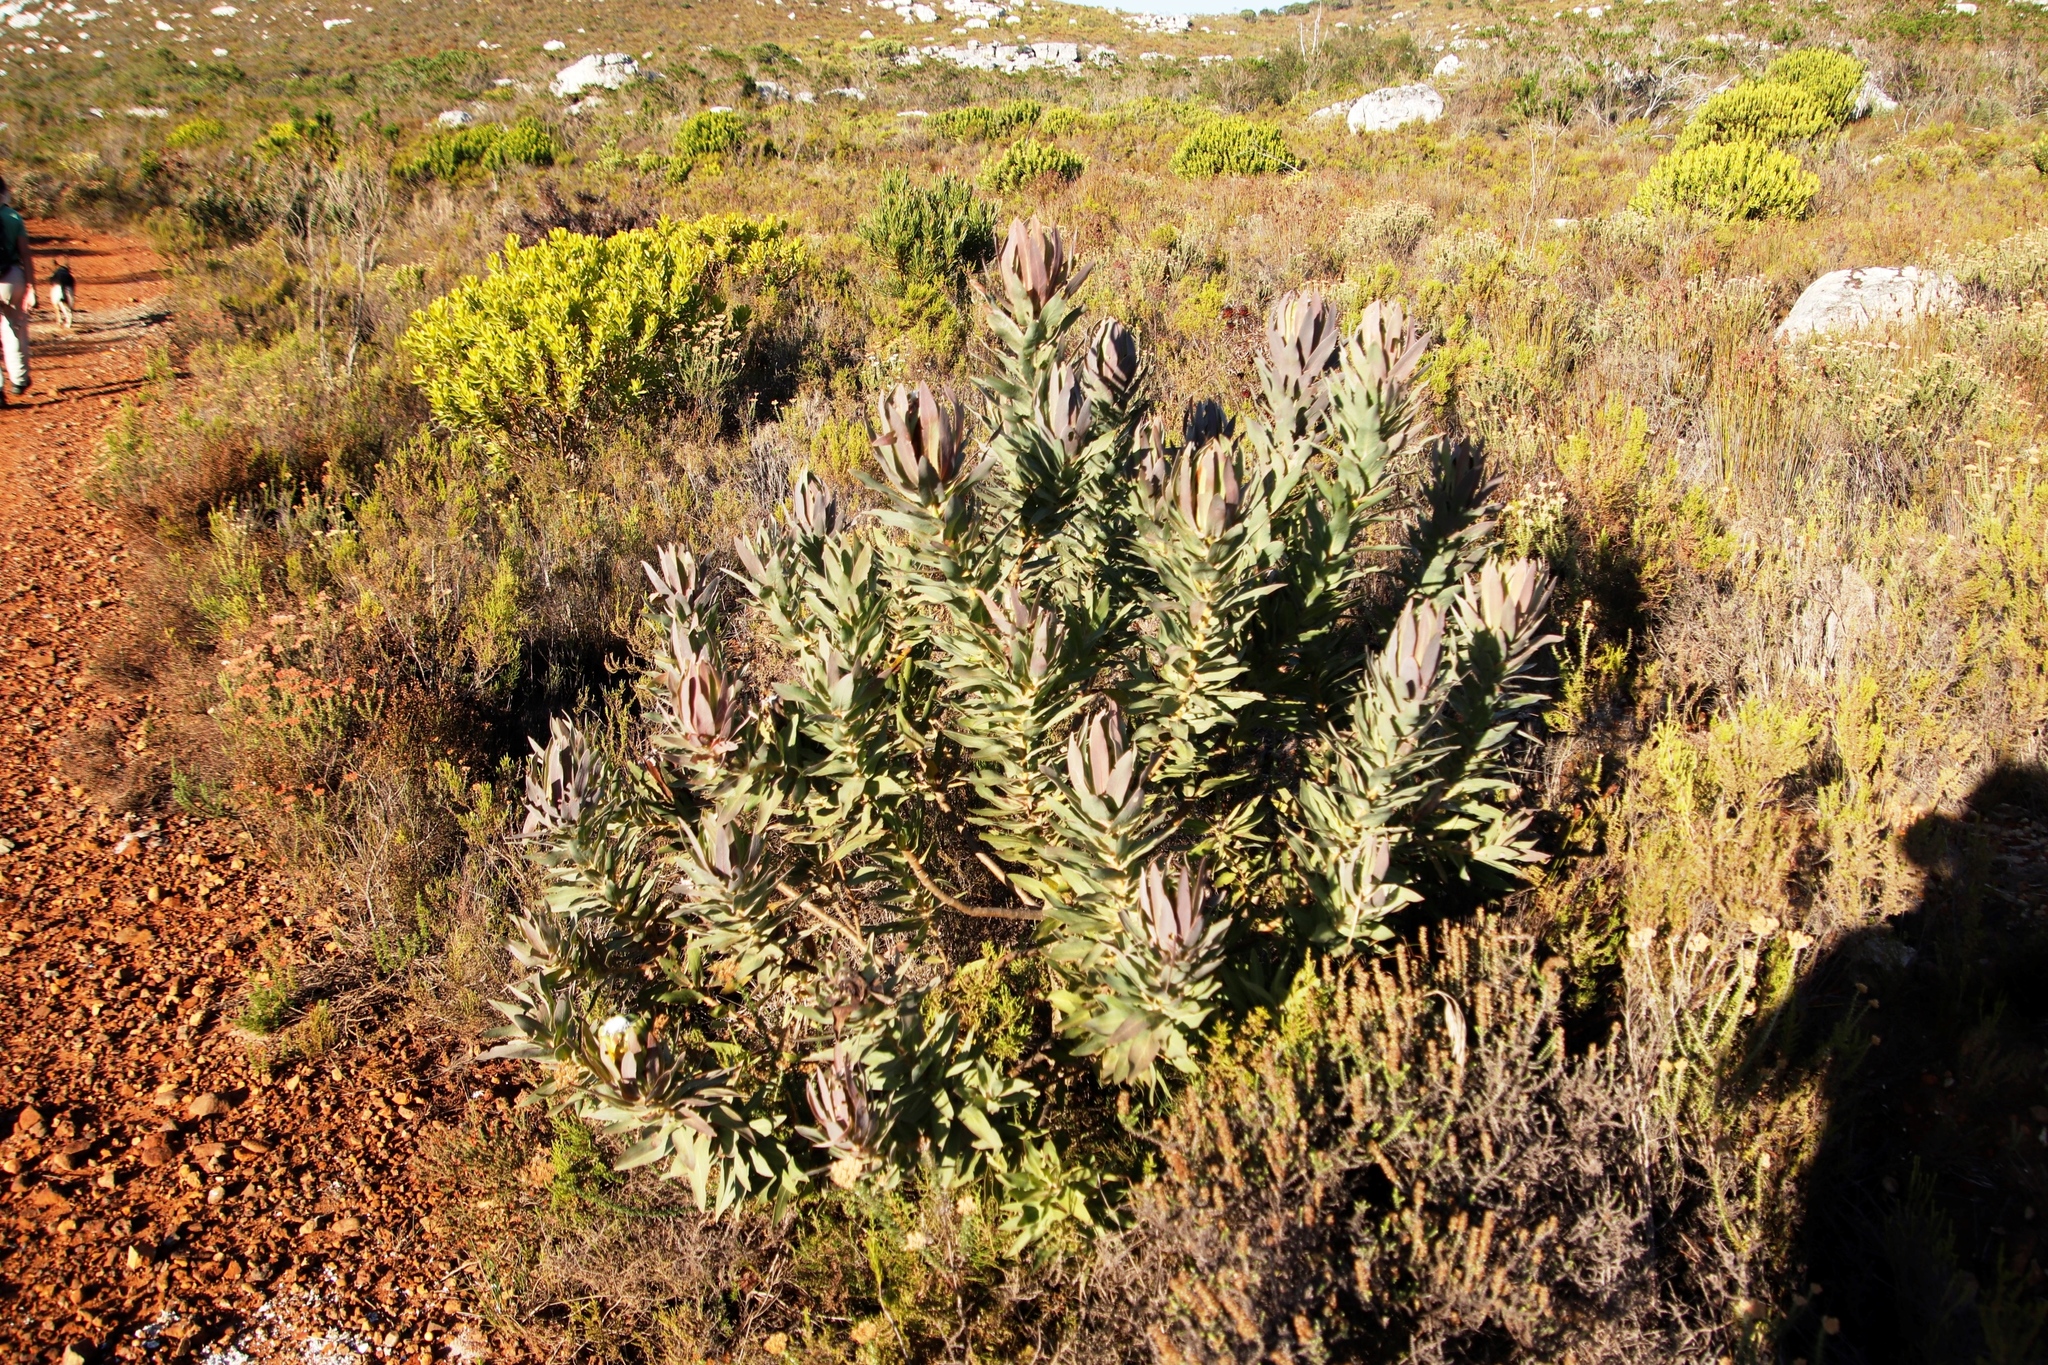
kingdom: Plantae
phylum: Tracheophyta
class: Magnoliopsida
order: Proteales
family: Proteaceae
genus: Protea
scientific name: Protea coronata
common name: Green sugarbush
